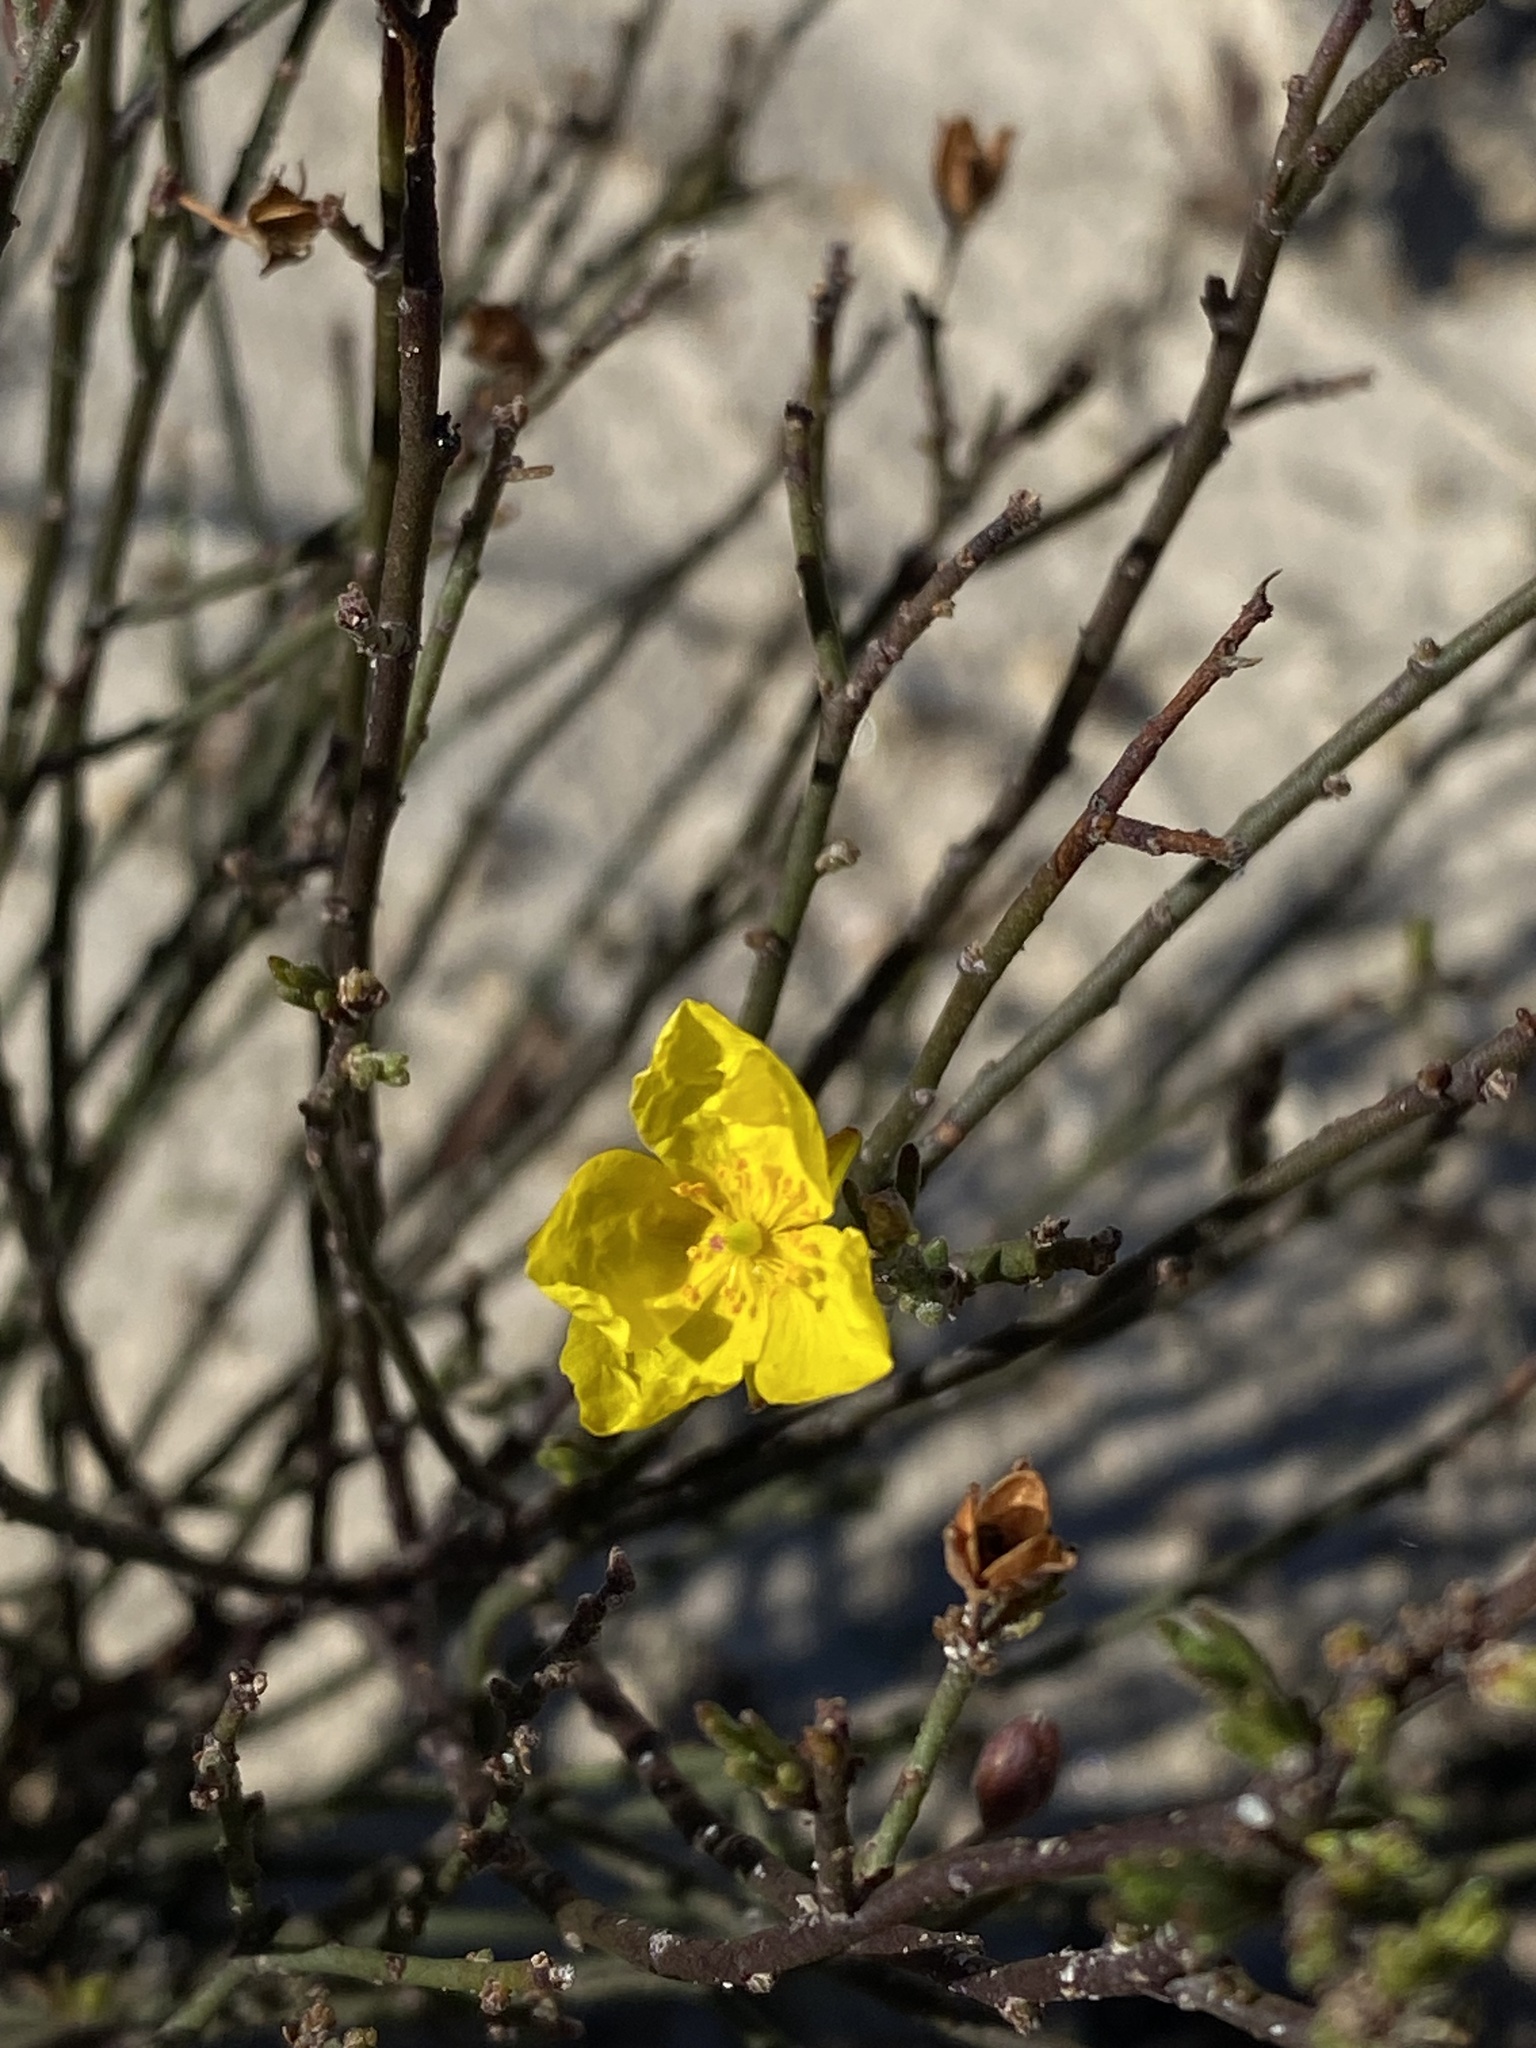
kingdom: Plantae
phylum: Tracheophyta
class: Magnoliopsida
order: Malvales
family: Cistaceae
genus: Crocanthemum
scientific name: Crocanthemum scoparium
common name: Broom-rose
